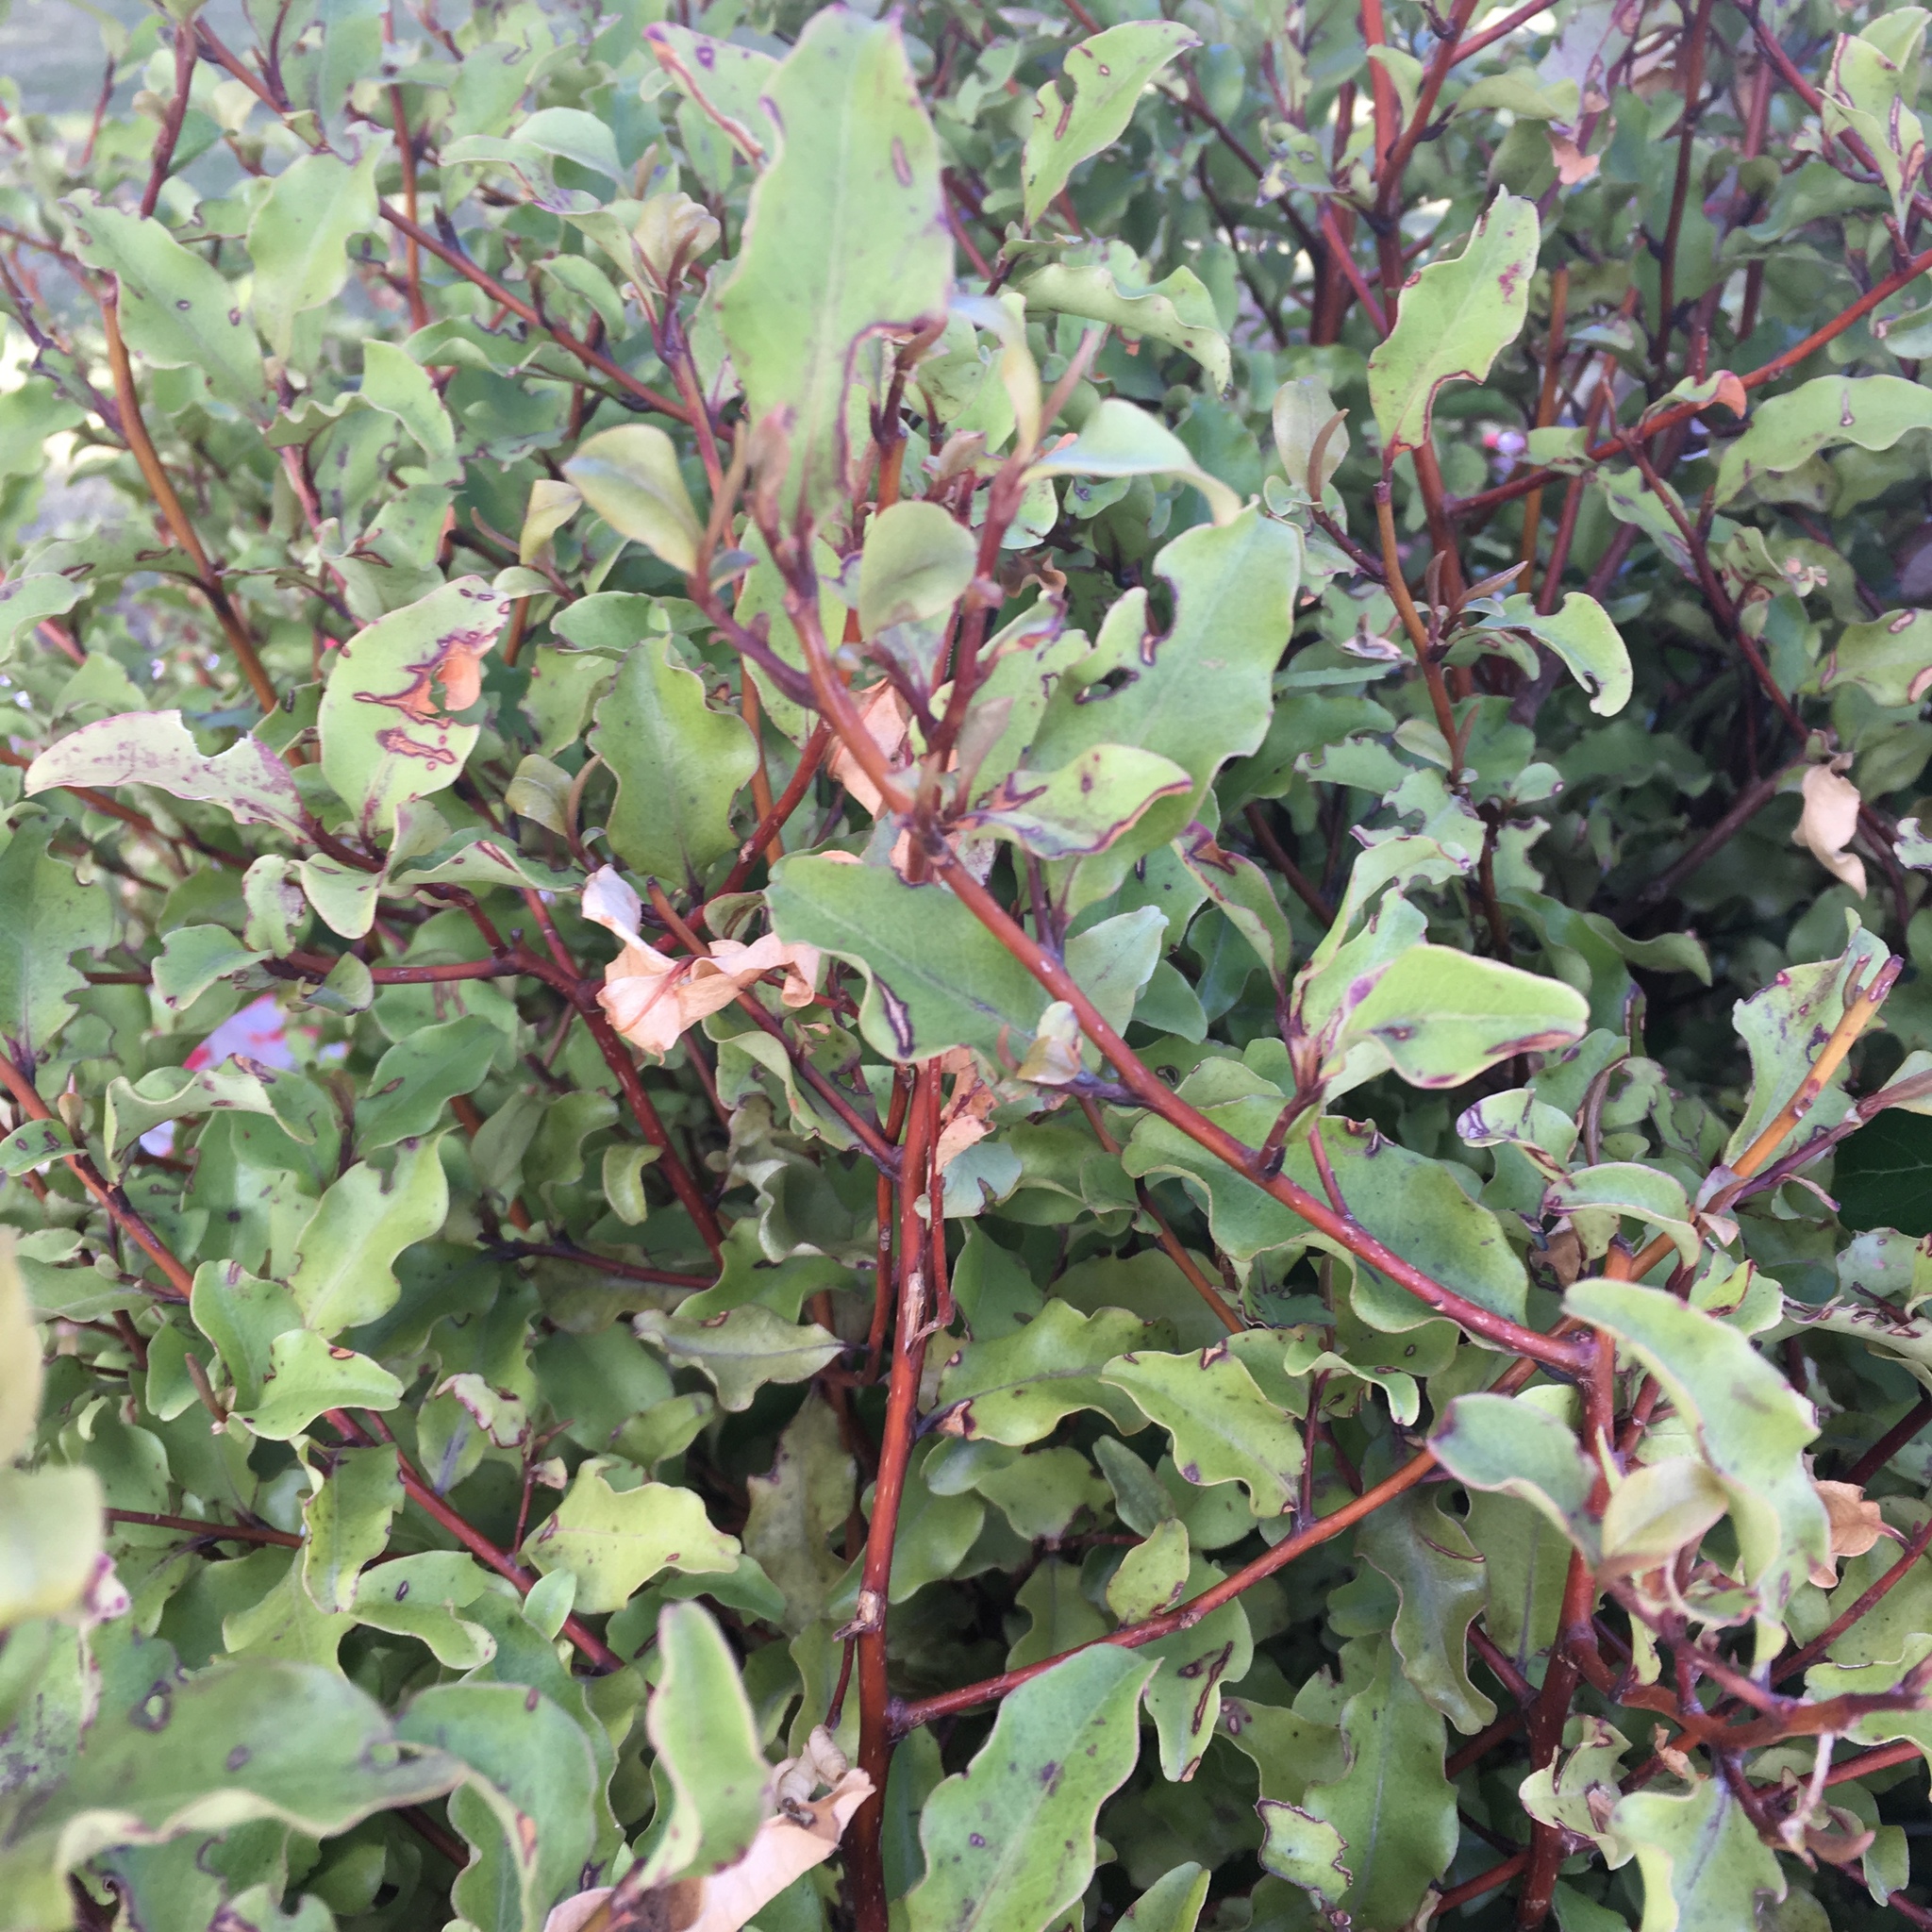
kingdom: Plantae
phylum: Tracheophyta
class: Magnoliopsida
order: Ericales
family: Primulaceae
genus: Myrsine
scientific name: Myrsine australis
